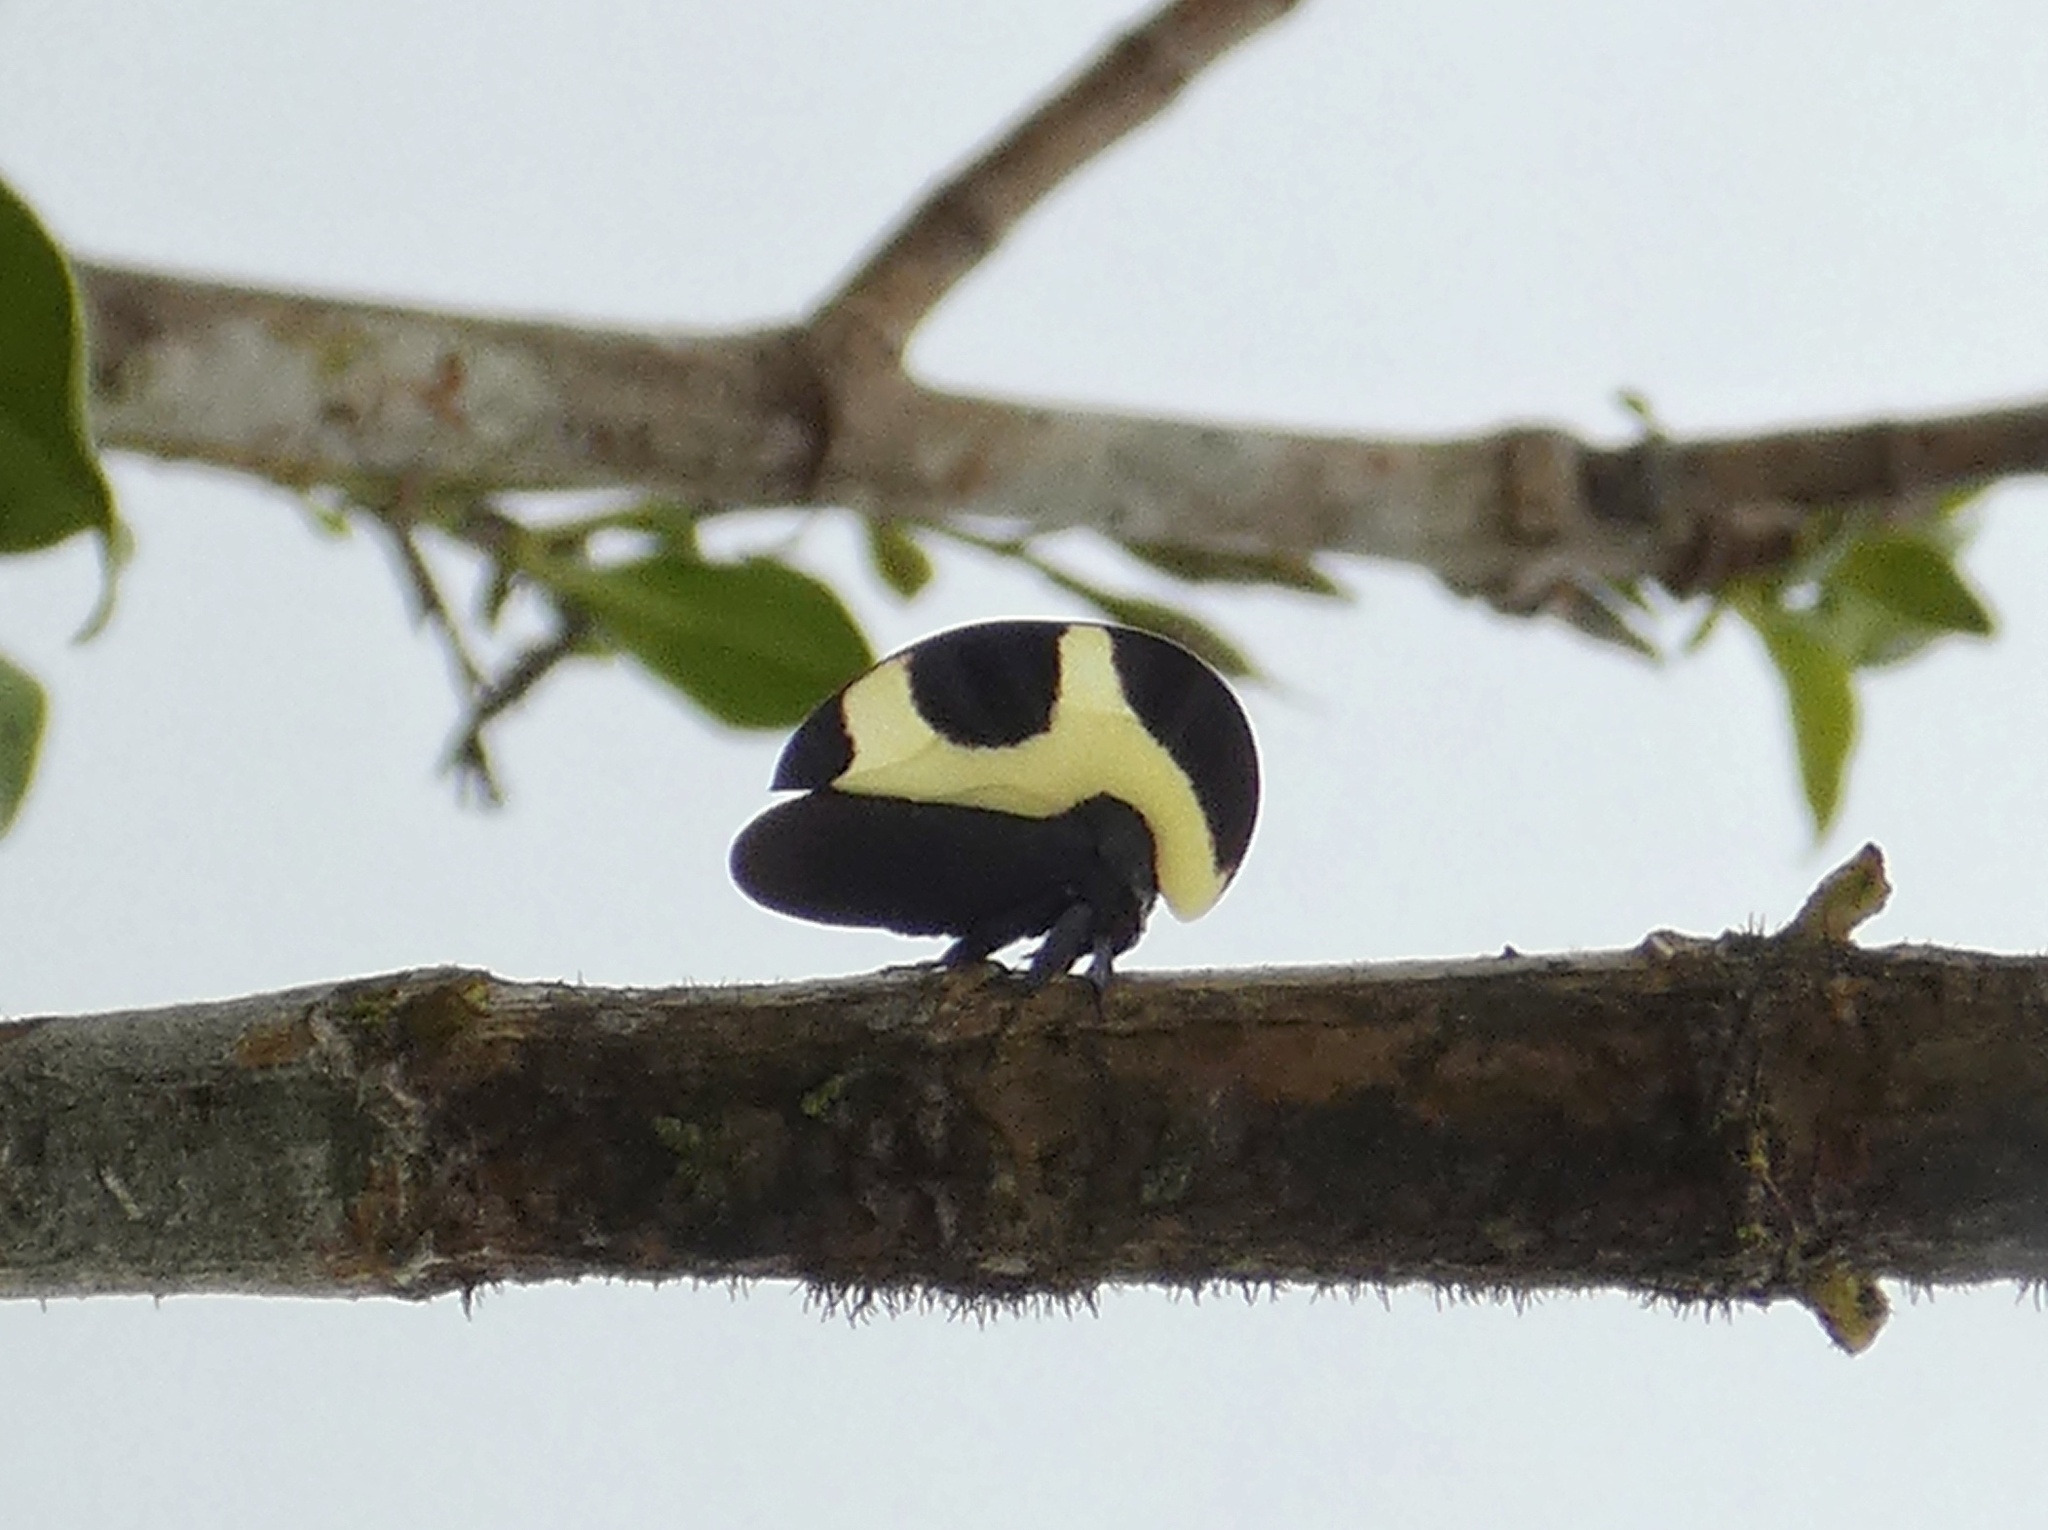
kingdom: Animalia
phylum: Arthropoda
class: Insecta
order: Hemiptera
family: Membracidae
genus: Membracis
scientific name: Membracis trimaculata
